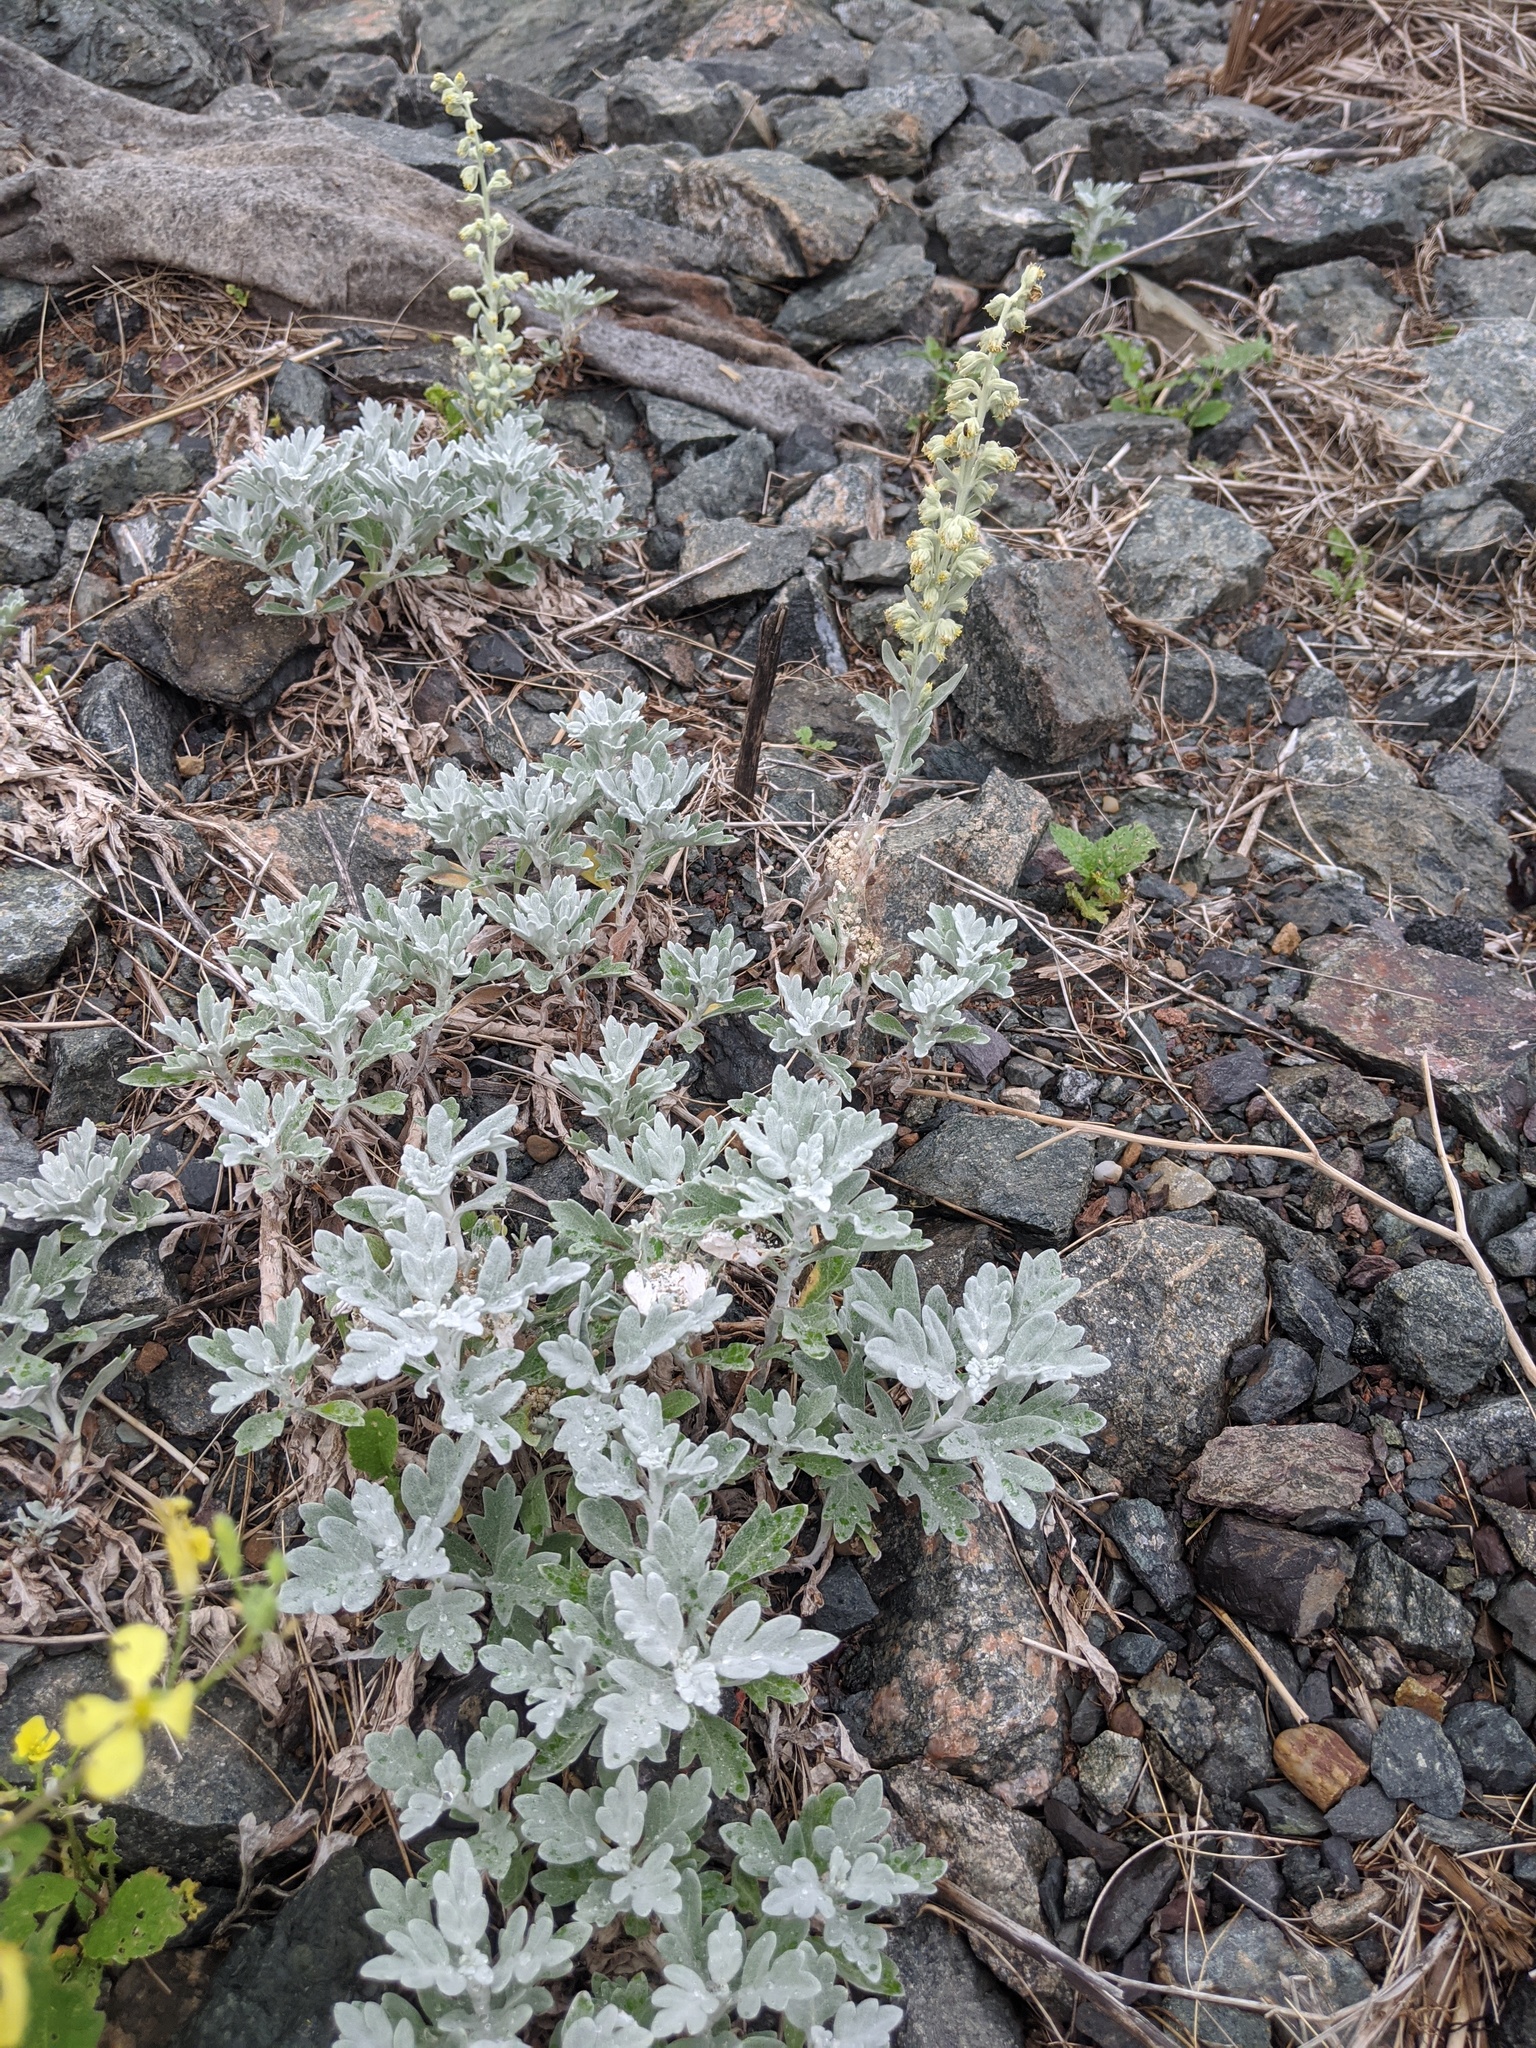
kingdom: Plantae
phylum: Tracheophyta
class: Magnoliopsida
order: Asterales
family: Asteraceae
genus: Artemisia
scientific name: Artemisia stelleriana
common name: Beach wormwood
